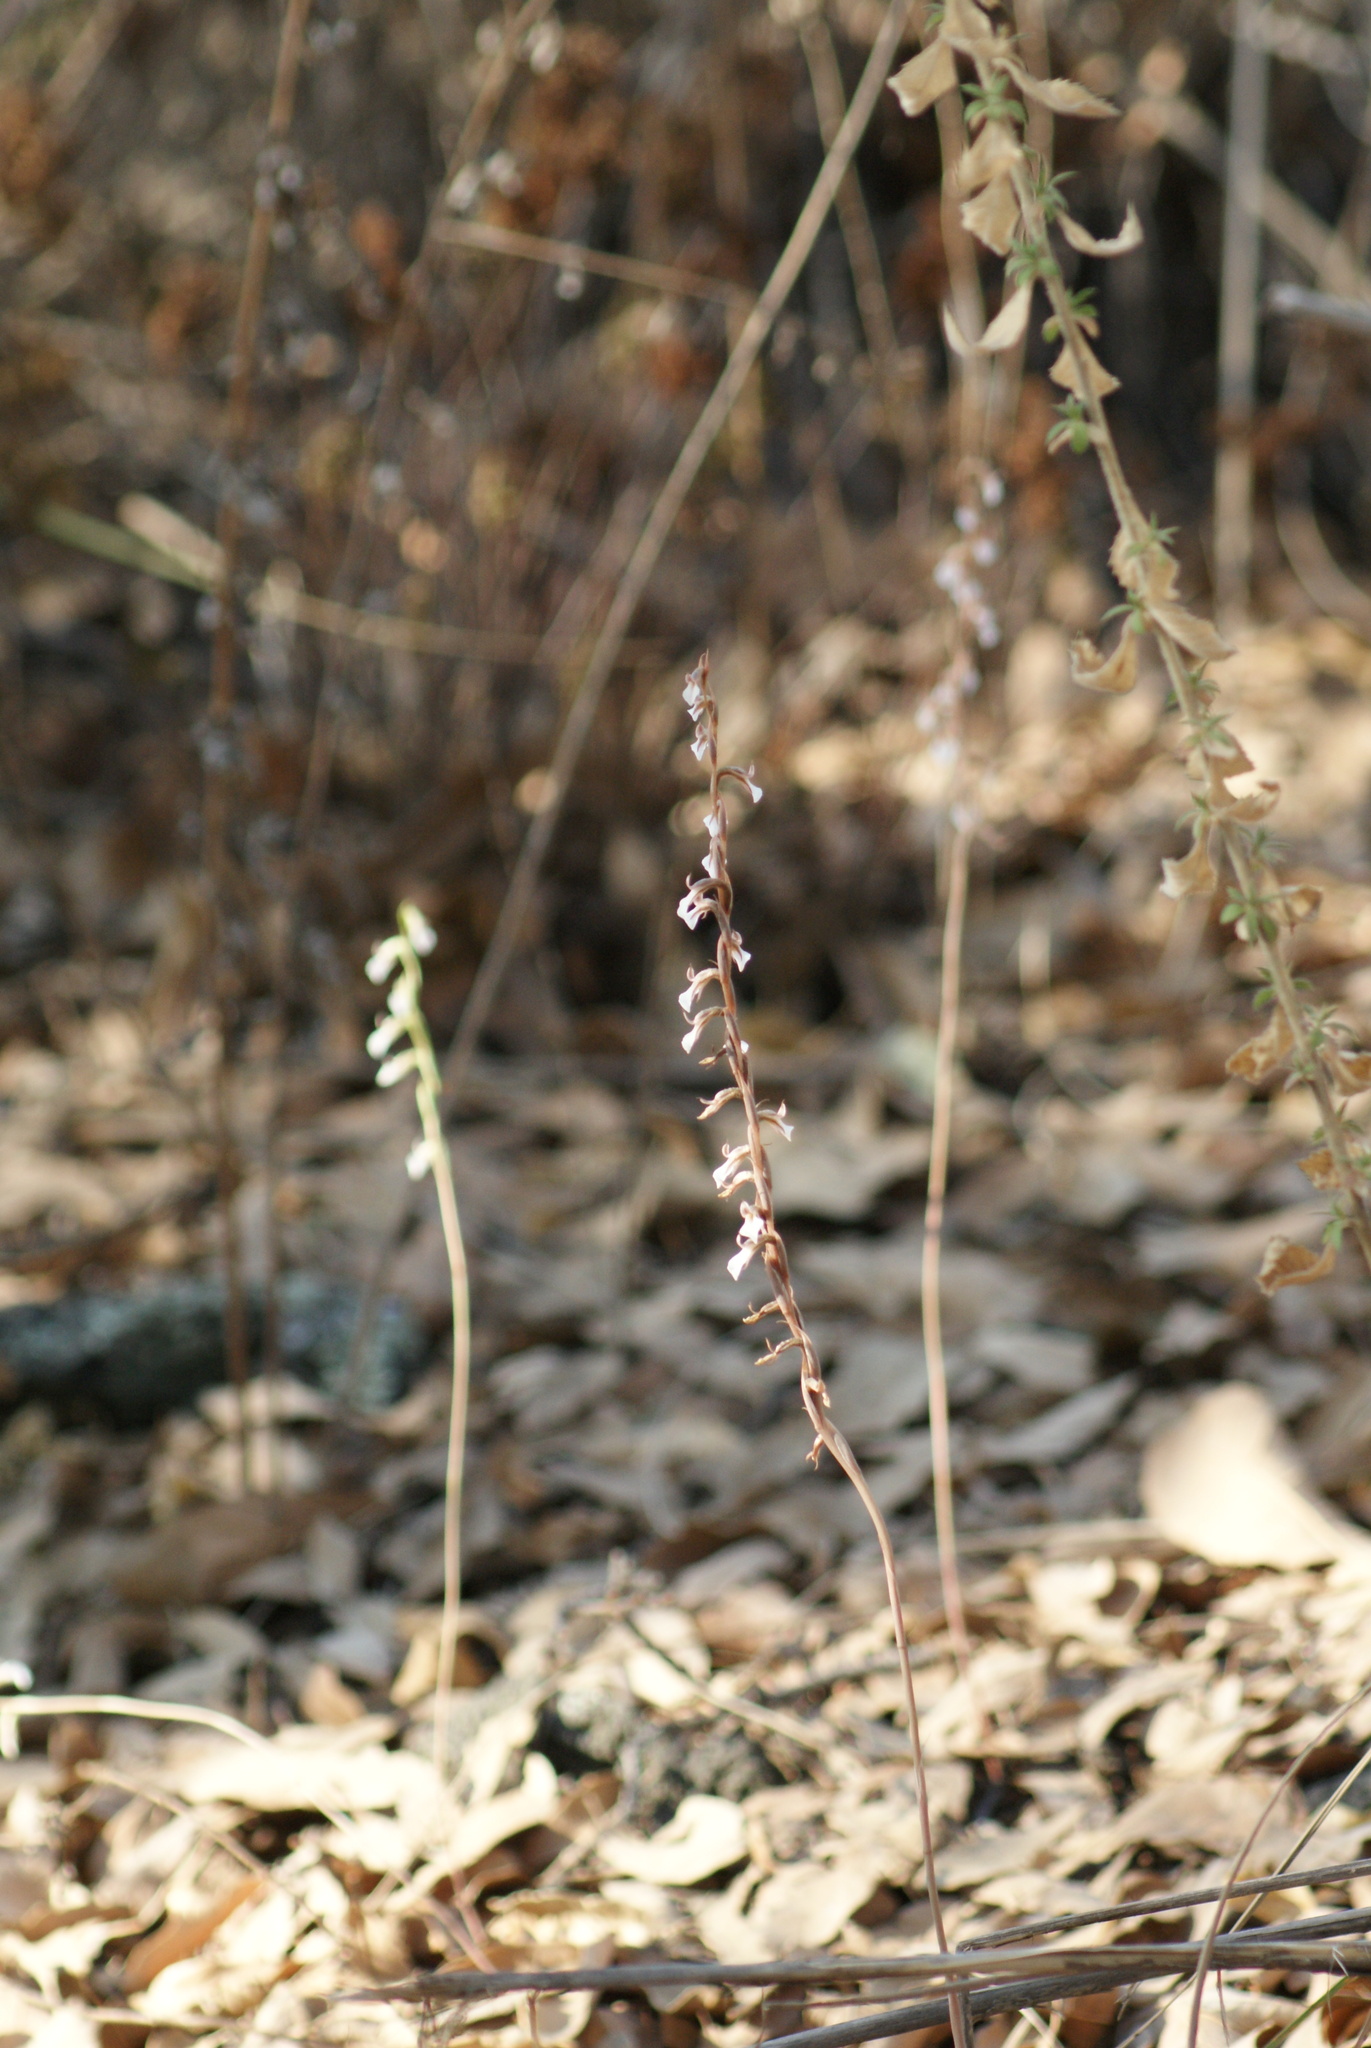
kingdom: Plantae
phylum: Tracheophyta
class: Liliopsida
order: Asparagales
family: Orchidaceae
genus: Greenwoodiella
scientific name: Greenwoodiella micrantha
